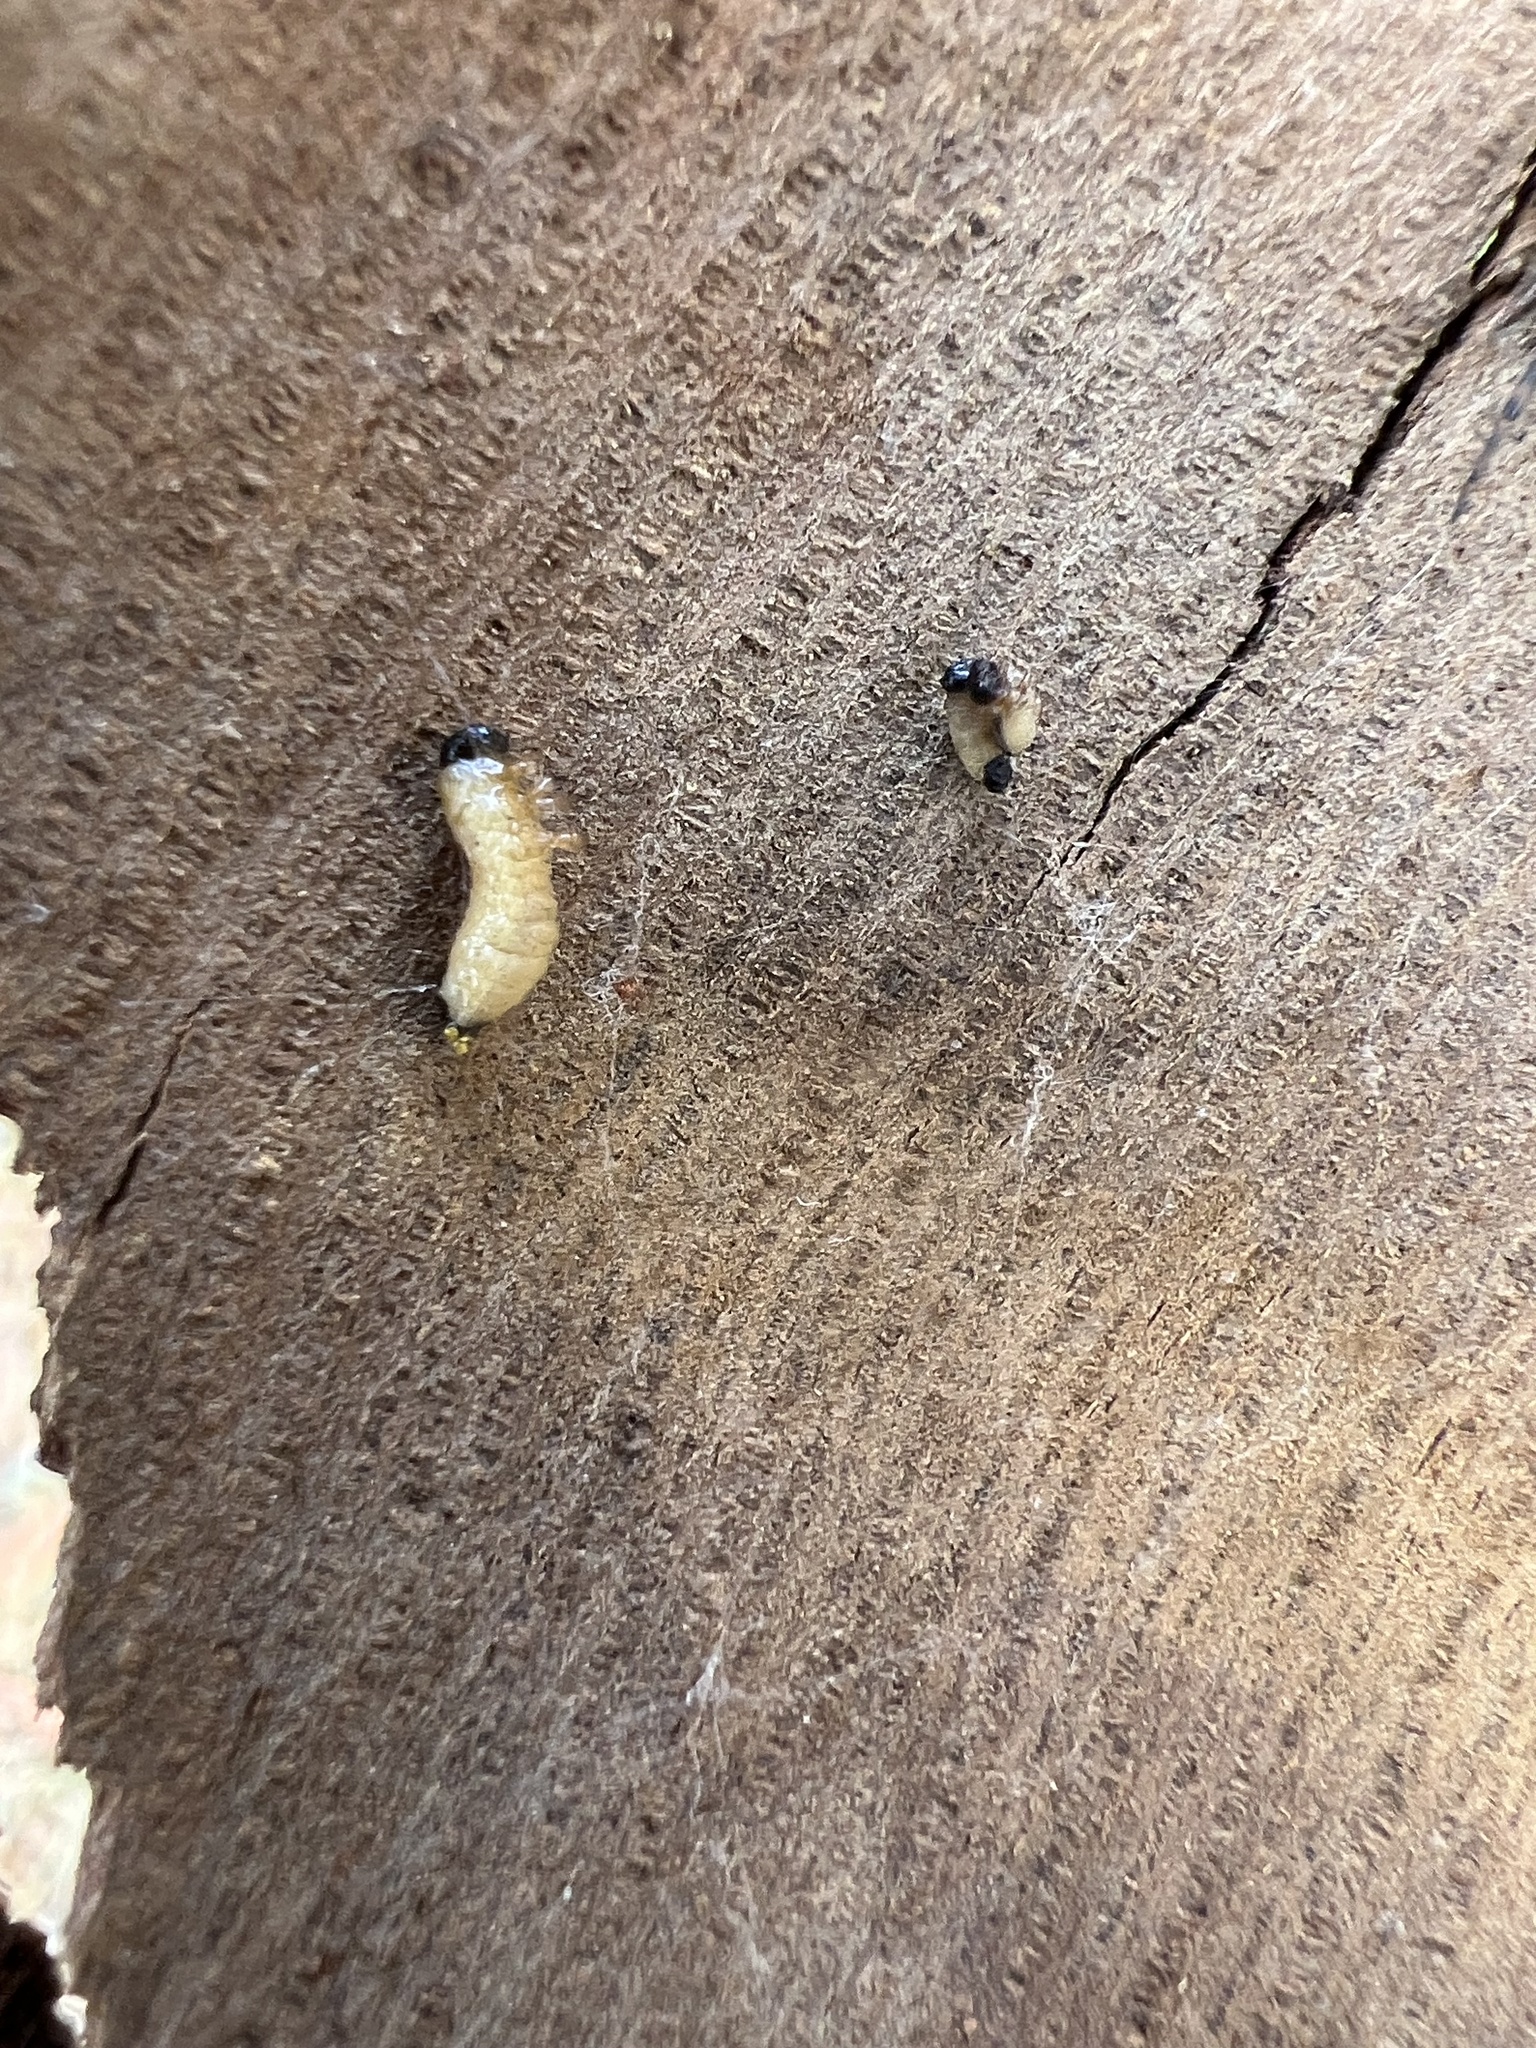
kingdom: Animalia
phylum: Arthropoda
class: Insecta
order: Coleoptera
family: Chrysomelidae
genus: Trachymela
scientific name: Trachymela sloanei
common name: Australian tortoise beetle
